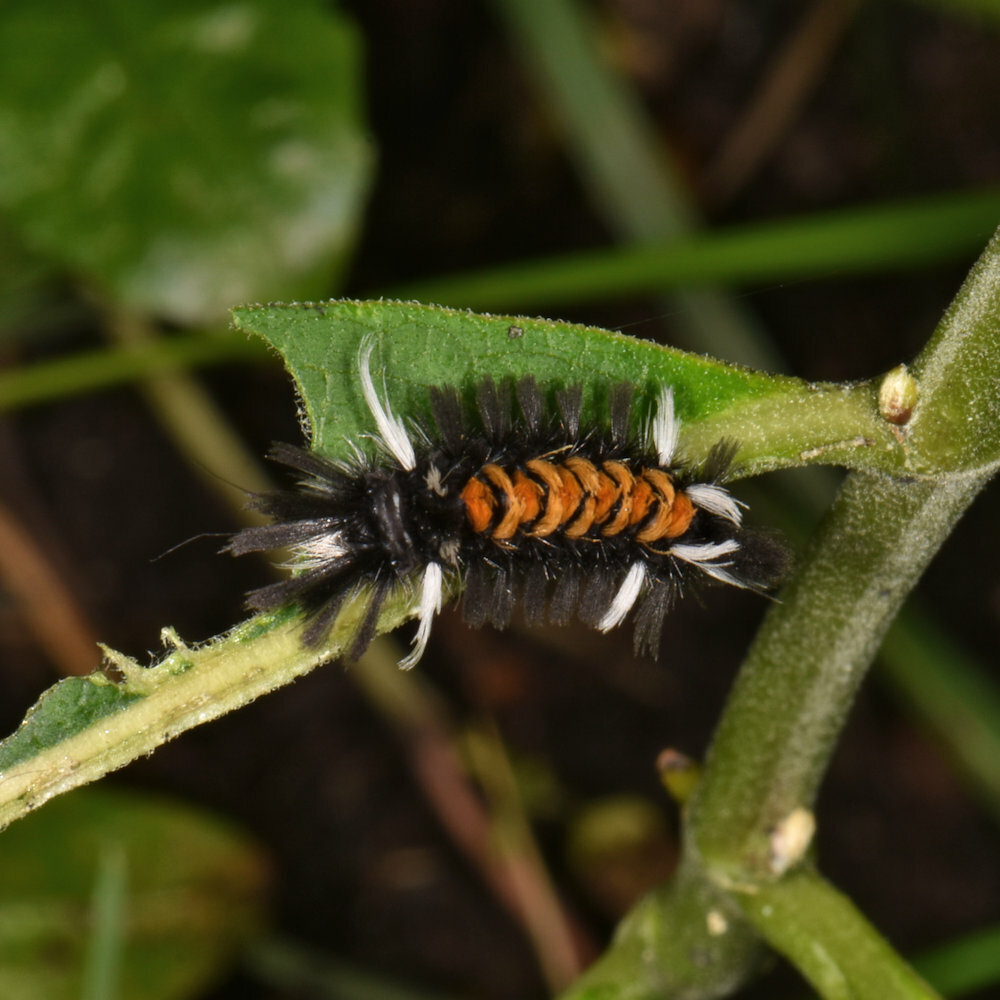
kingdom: Animalia
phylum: Arthropoda
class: Insecta
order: Lepidoptera
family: Erebidae
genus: Euchaetes
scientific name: Euchaetes egle
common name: Milkweed tussock moth
